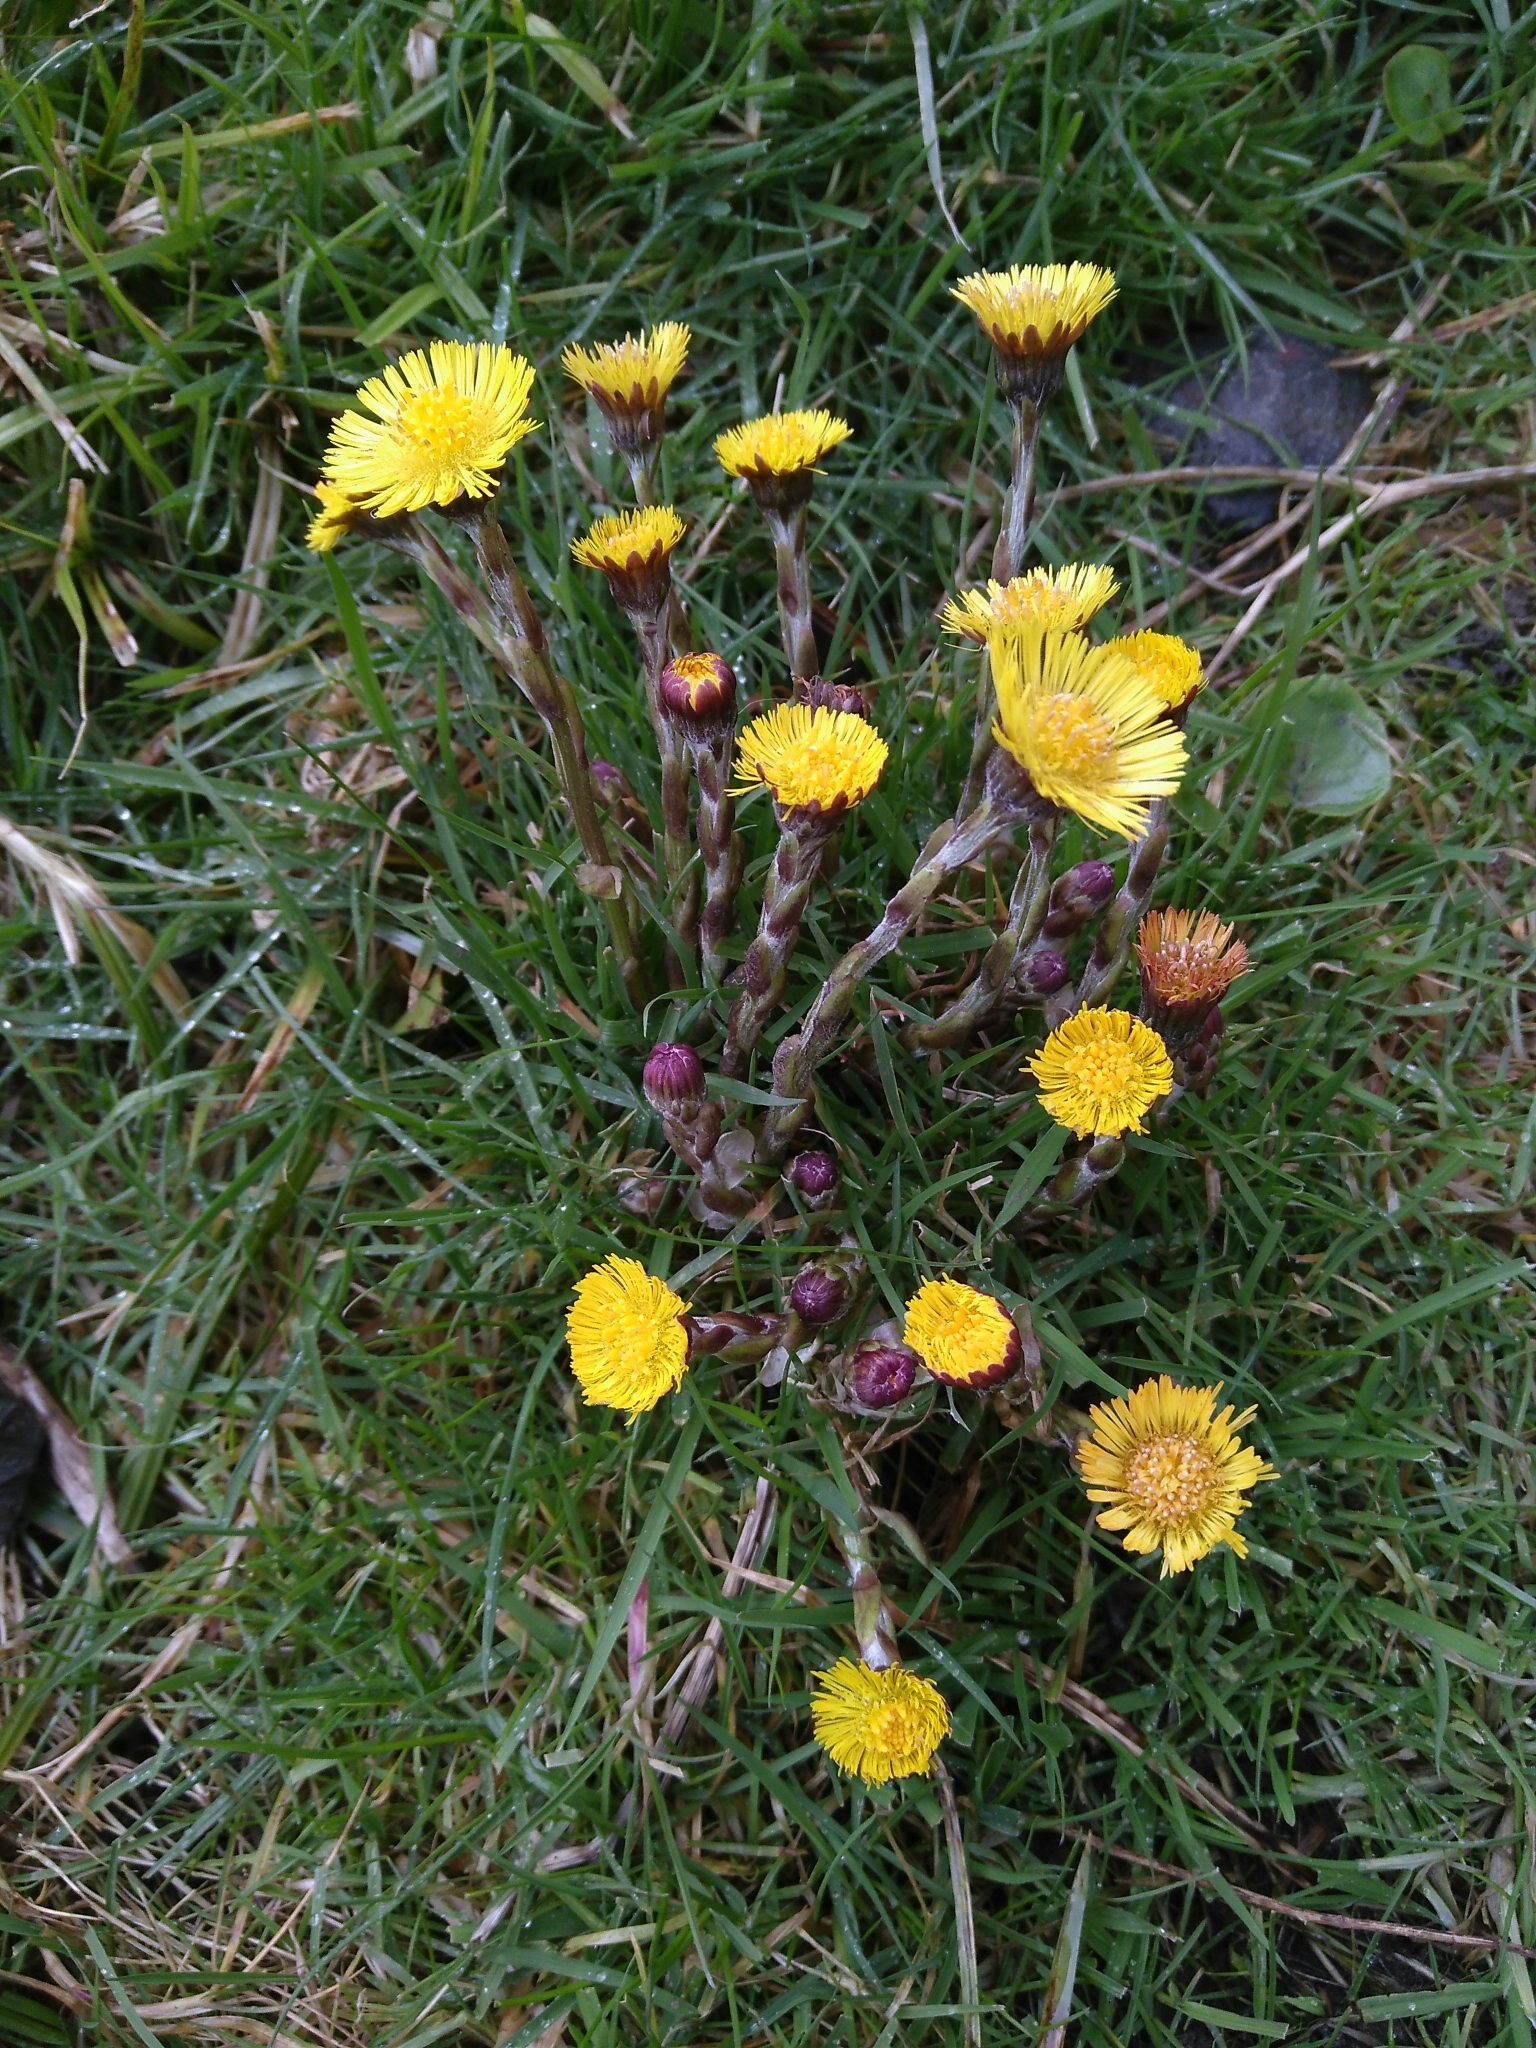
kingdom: Plantae
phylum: Tracheophyta
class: Magnoliopsida
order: Asterales
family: Asteraceae
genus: Tussilago
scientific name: Tussilago farfara
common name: Coltsfoot
